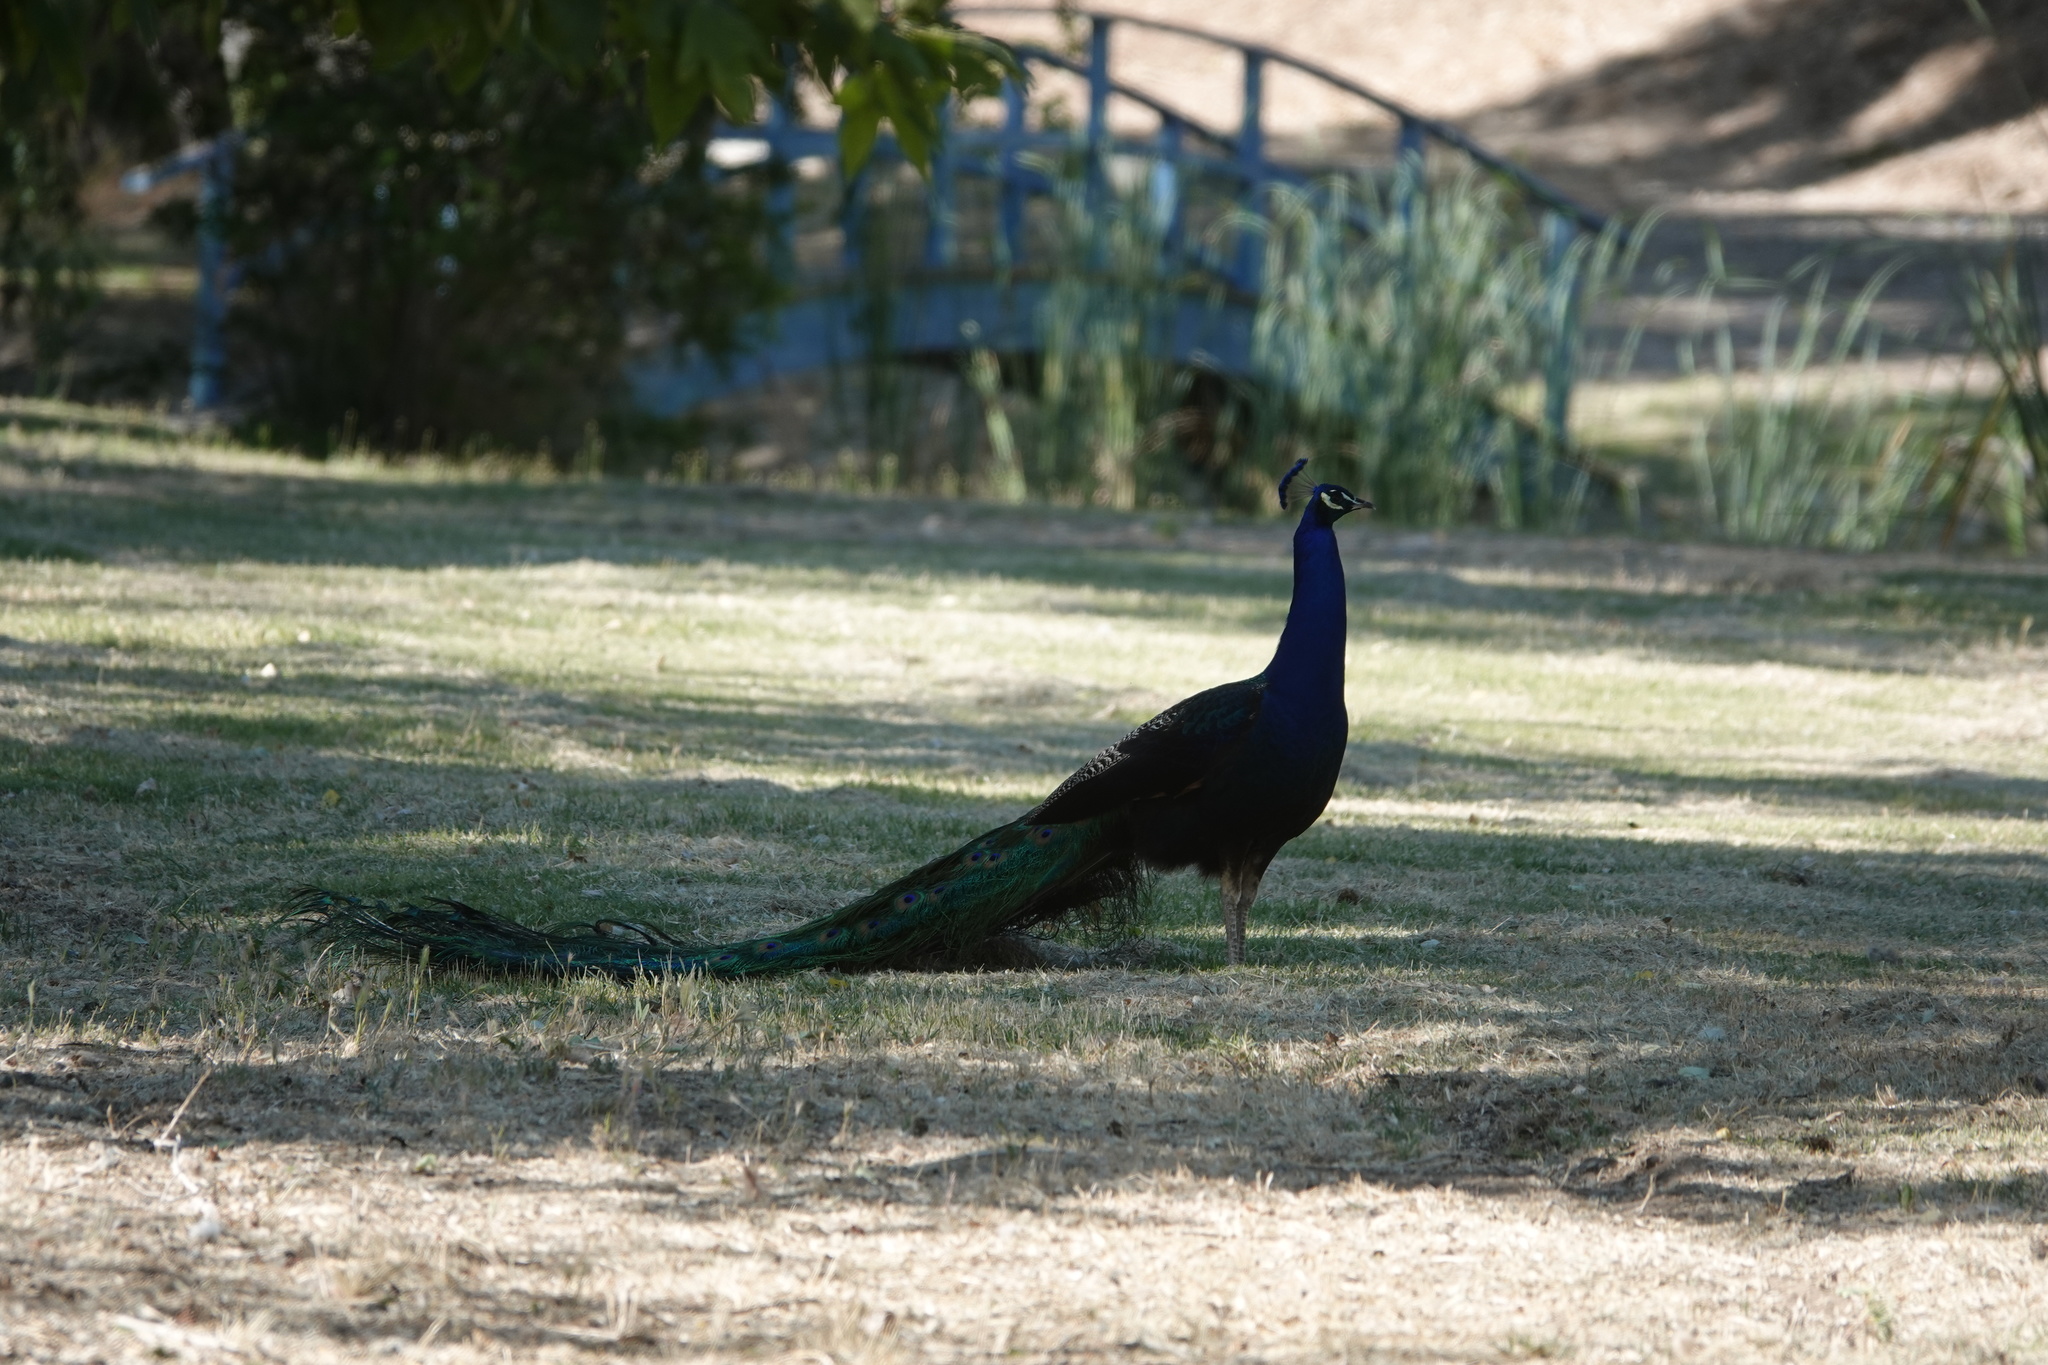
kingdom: Animalia
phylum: Chordata
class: Aves
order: Galliformes
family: Phasianidae
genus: Pavo
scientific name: Pavo cristatus
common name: Indian peafowl
